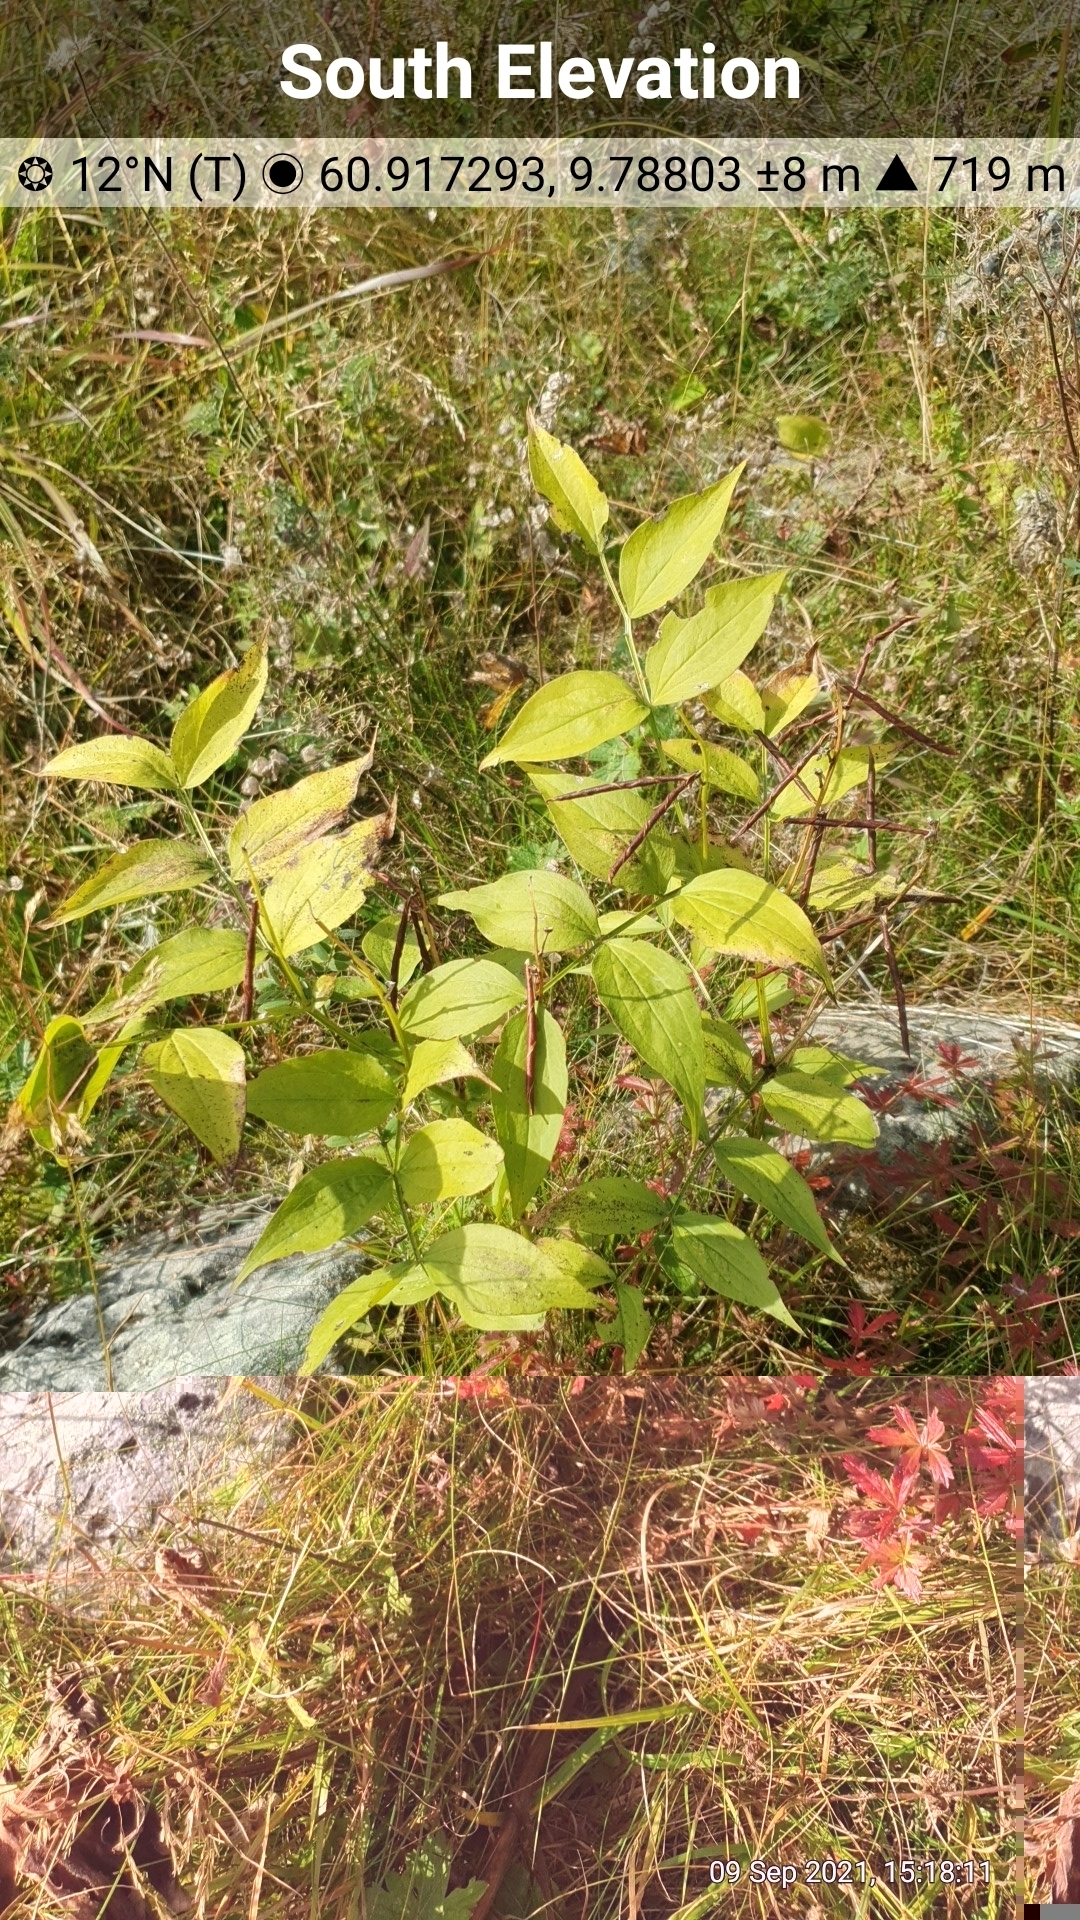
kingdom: Plantae
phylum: Tracheophyta
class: Magnoliopsida
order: Fabales
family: Fabaceae
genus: Lathyrus
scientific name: Lathyrus vernus
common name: Spring pea
